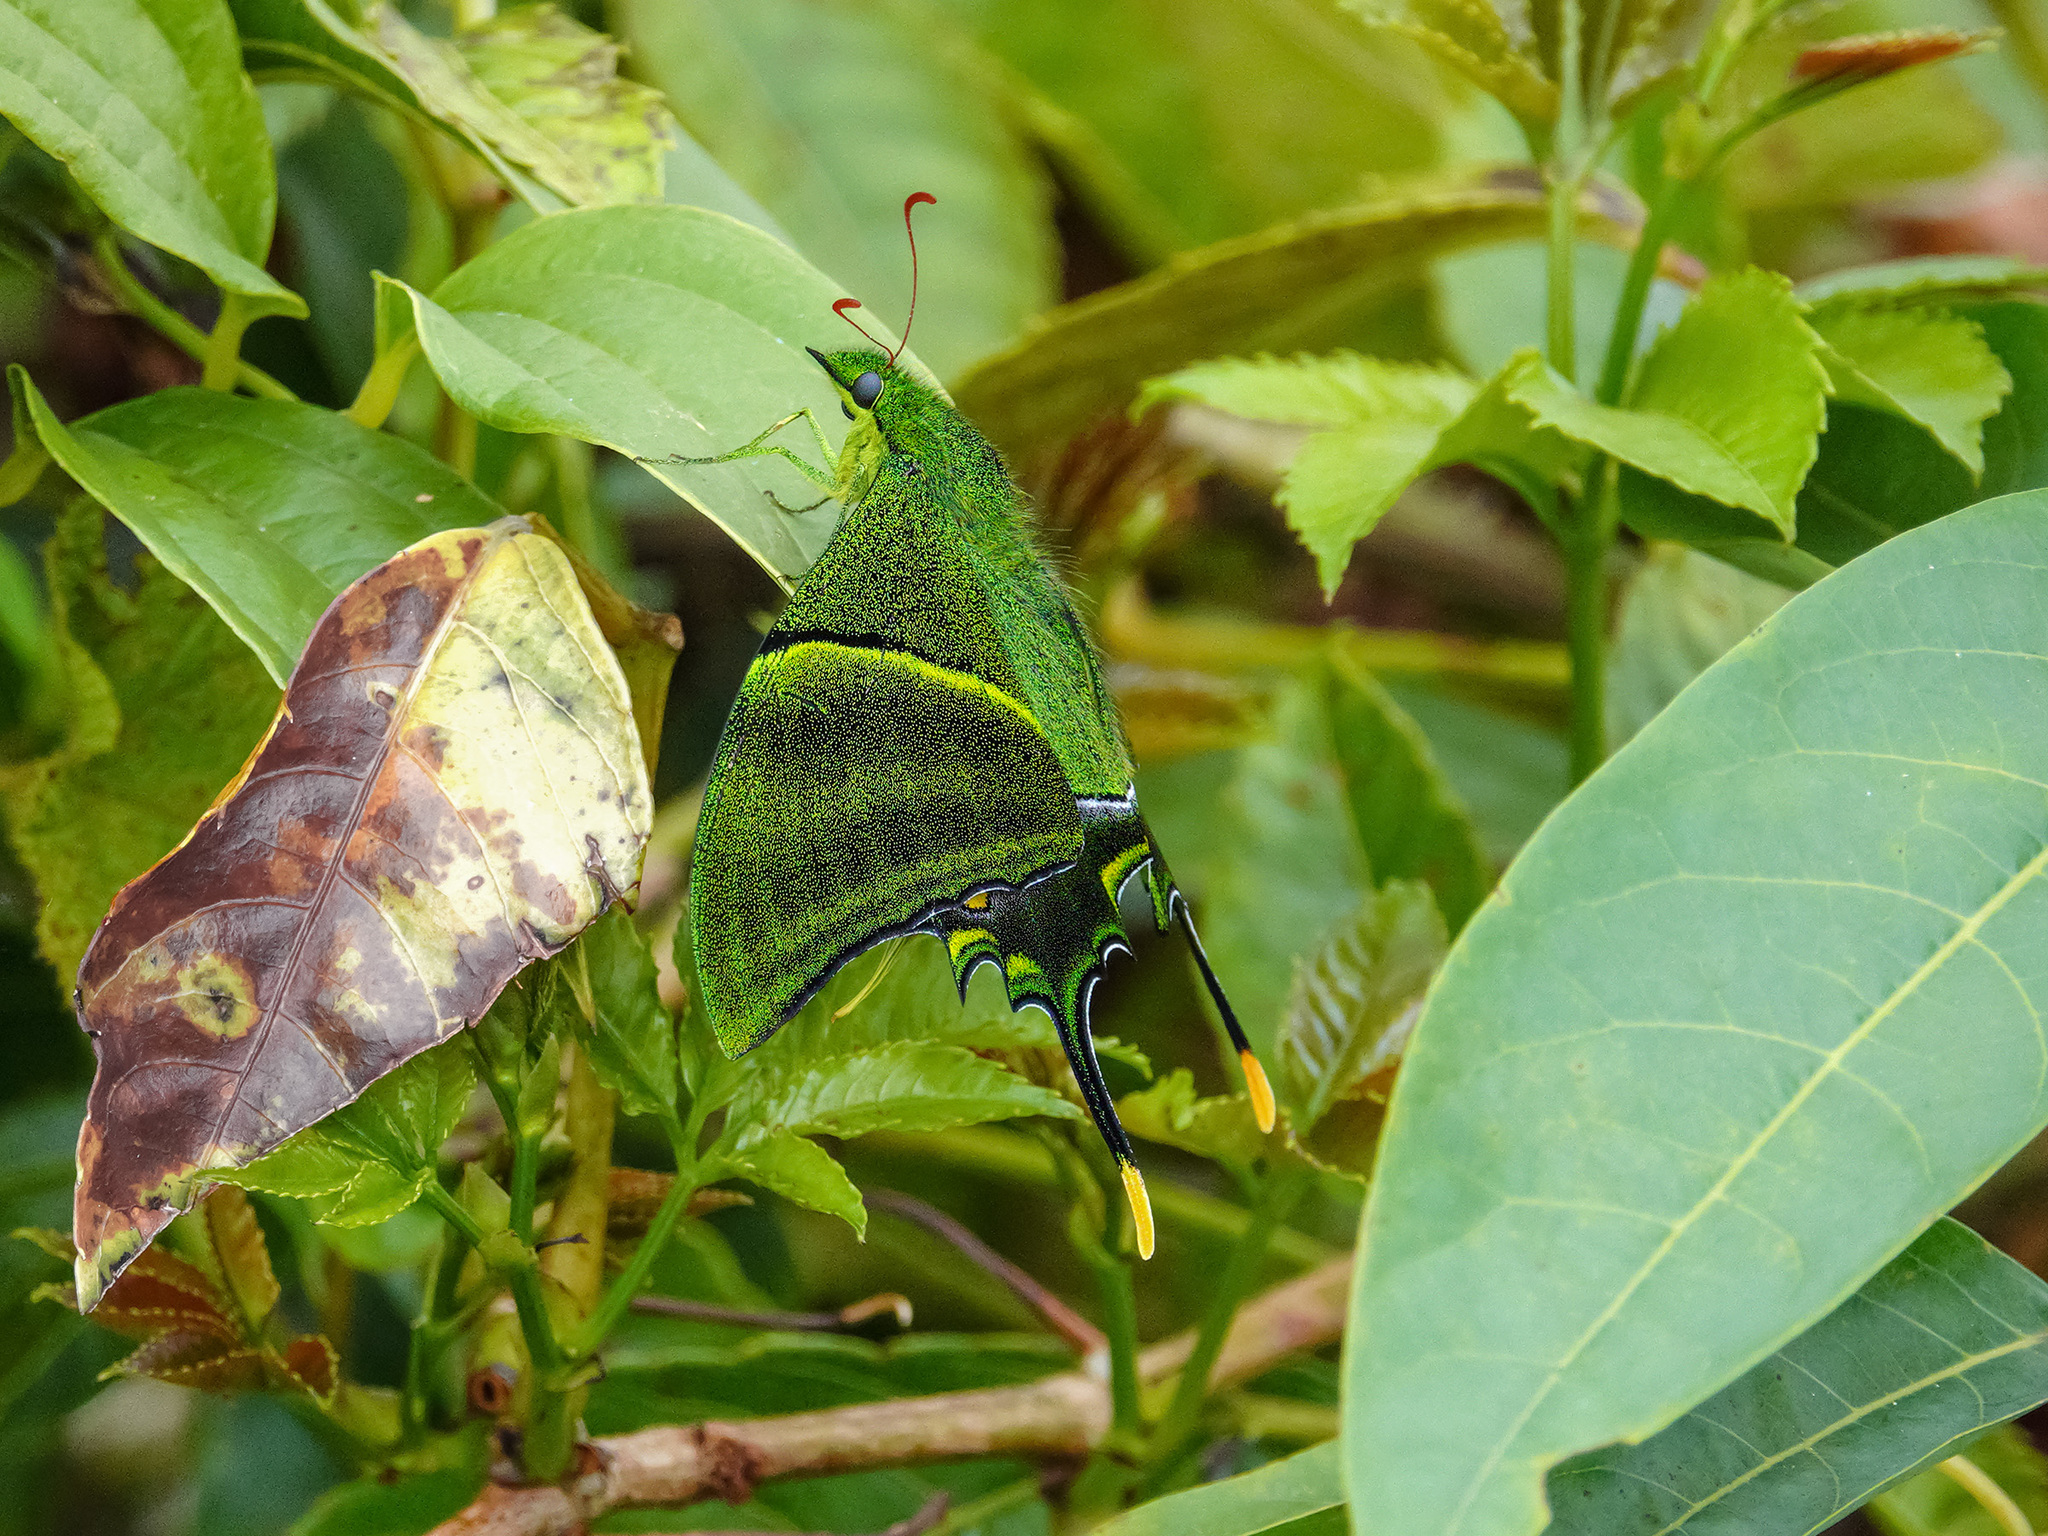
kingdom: Animalia
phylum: Arthropoda
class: Insecta
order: Lepidoptera
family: Papilionidae
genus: Teinopalpus
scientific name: Teinopalpus imperialis
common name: Kaiser-i-hind
